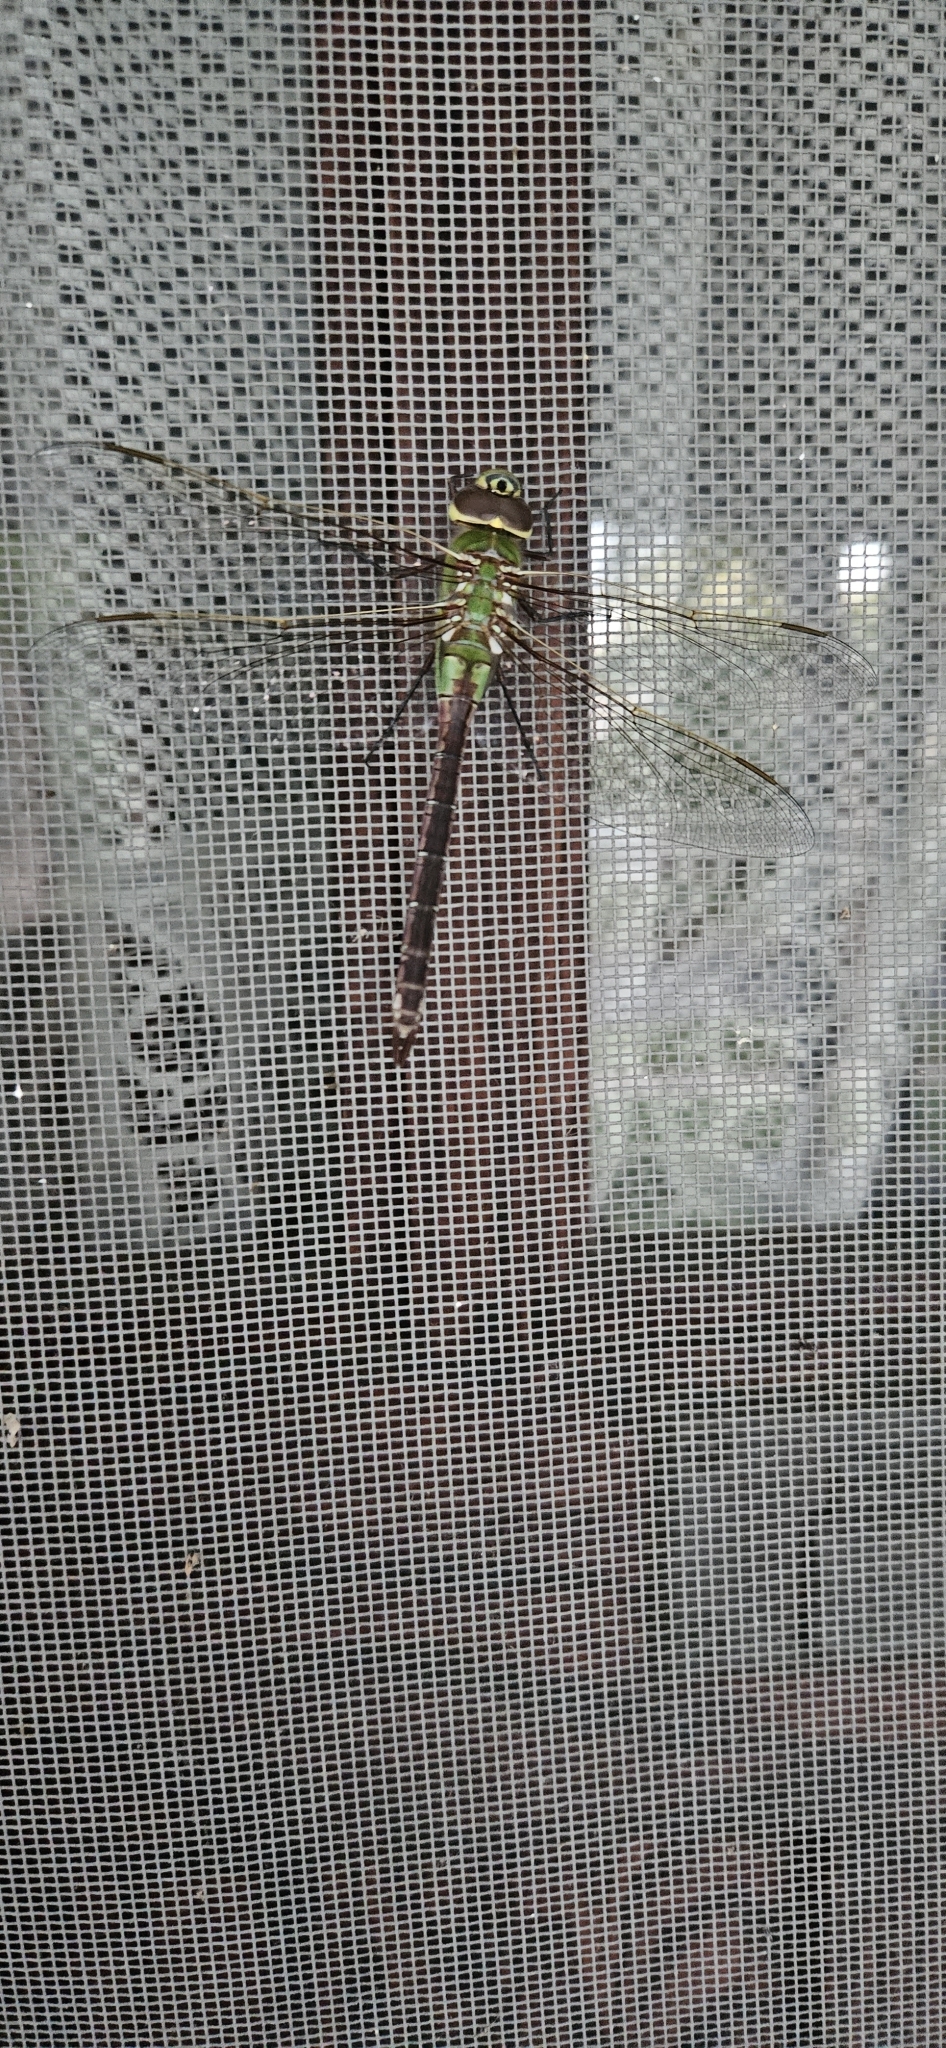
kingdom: Animalia
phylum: Arthropoda
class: Insecta
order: Odonata
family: Aeshnidae
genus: Anax
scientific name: Anax junius
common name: Common green darner
